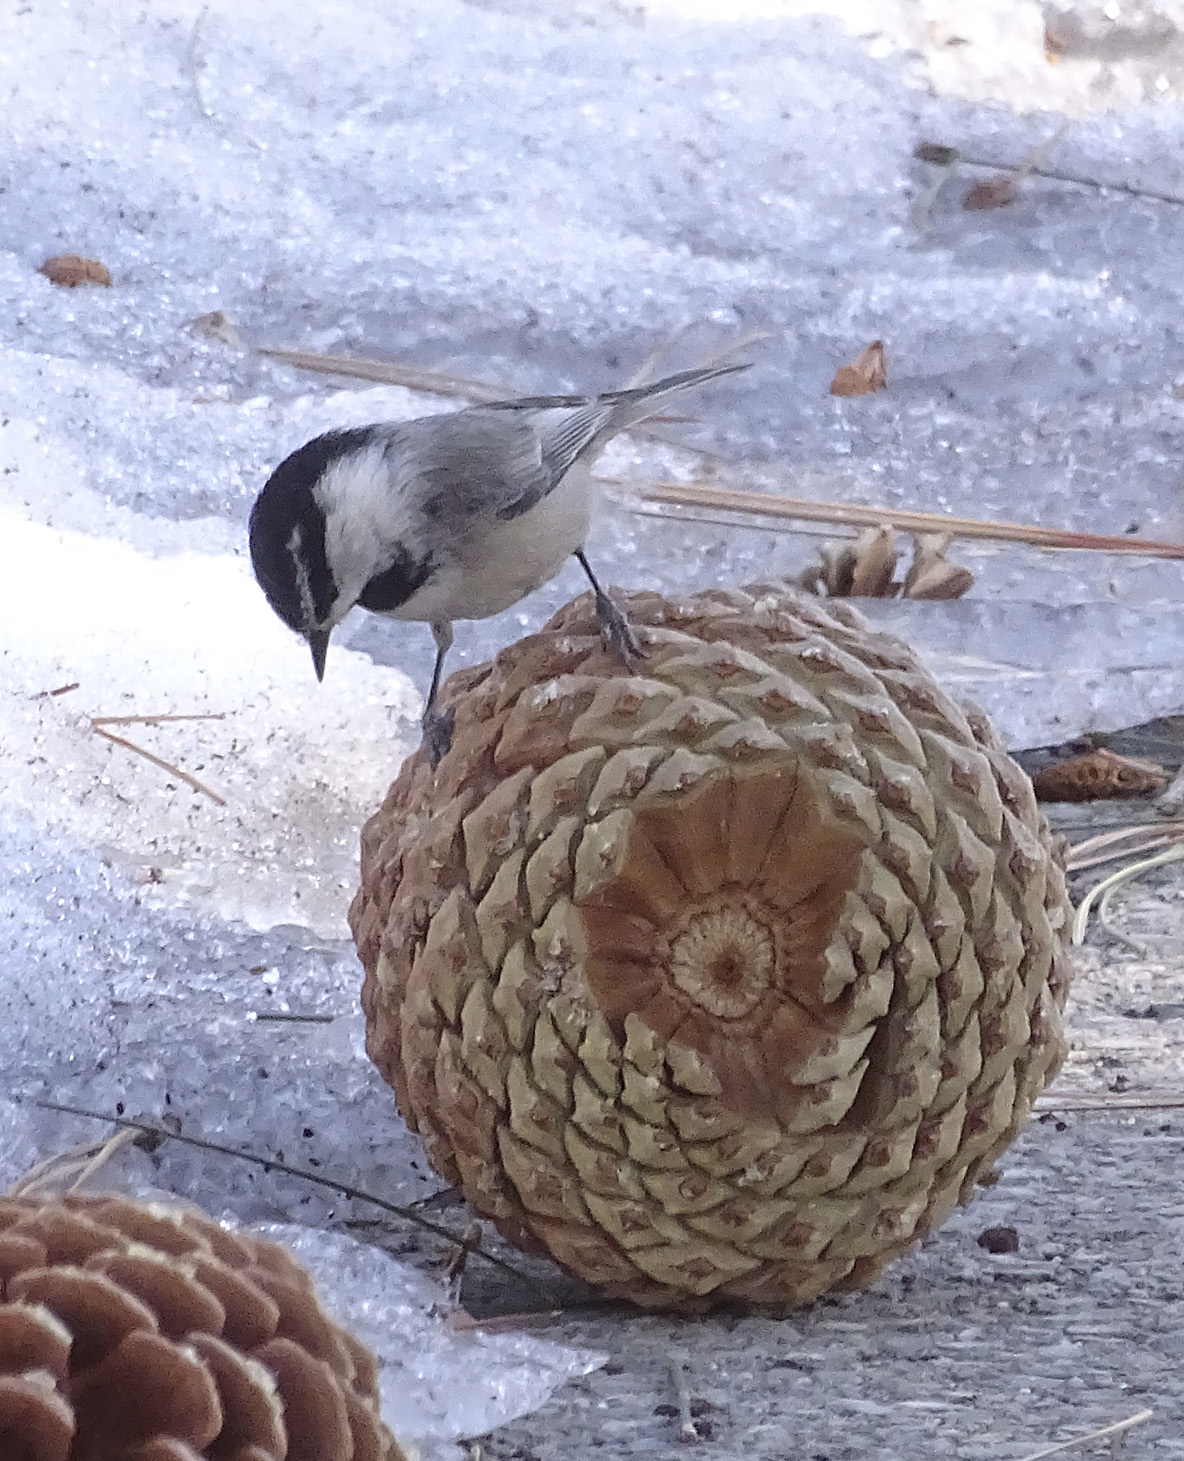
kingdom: Animalia
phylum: Chordata
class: Aves
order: Passeriformes
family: Paridae
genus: Poecile
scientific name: Poecile gambeli
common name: Mountain chickadee
